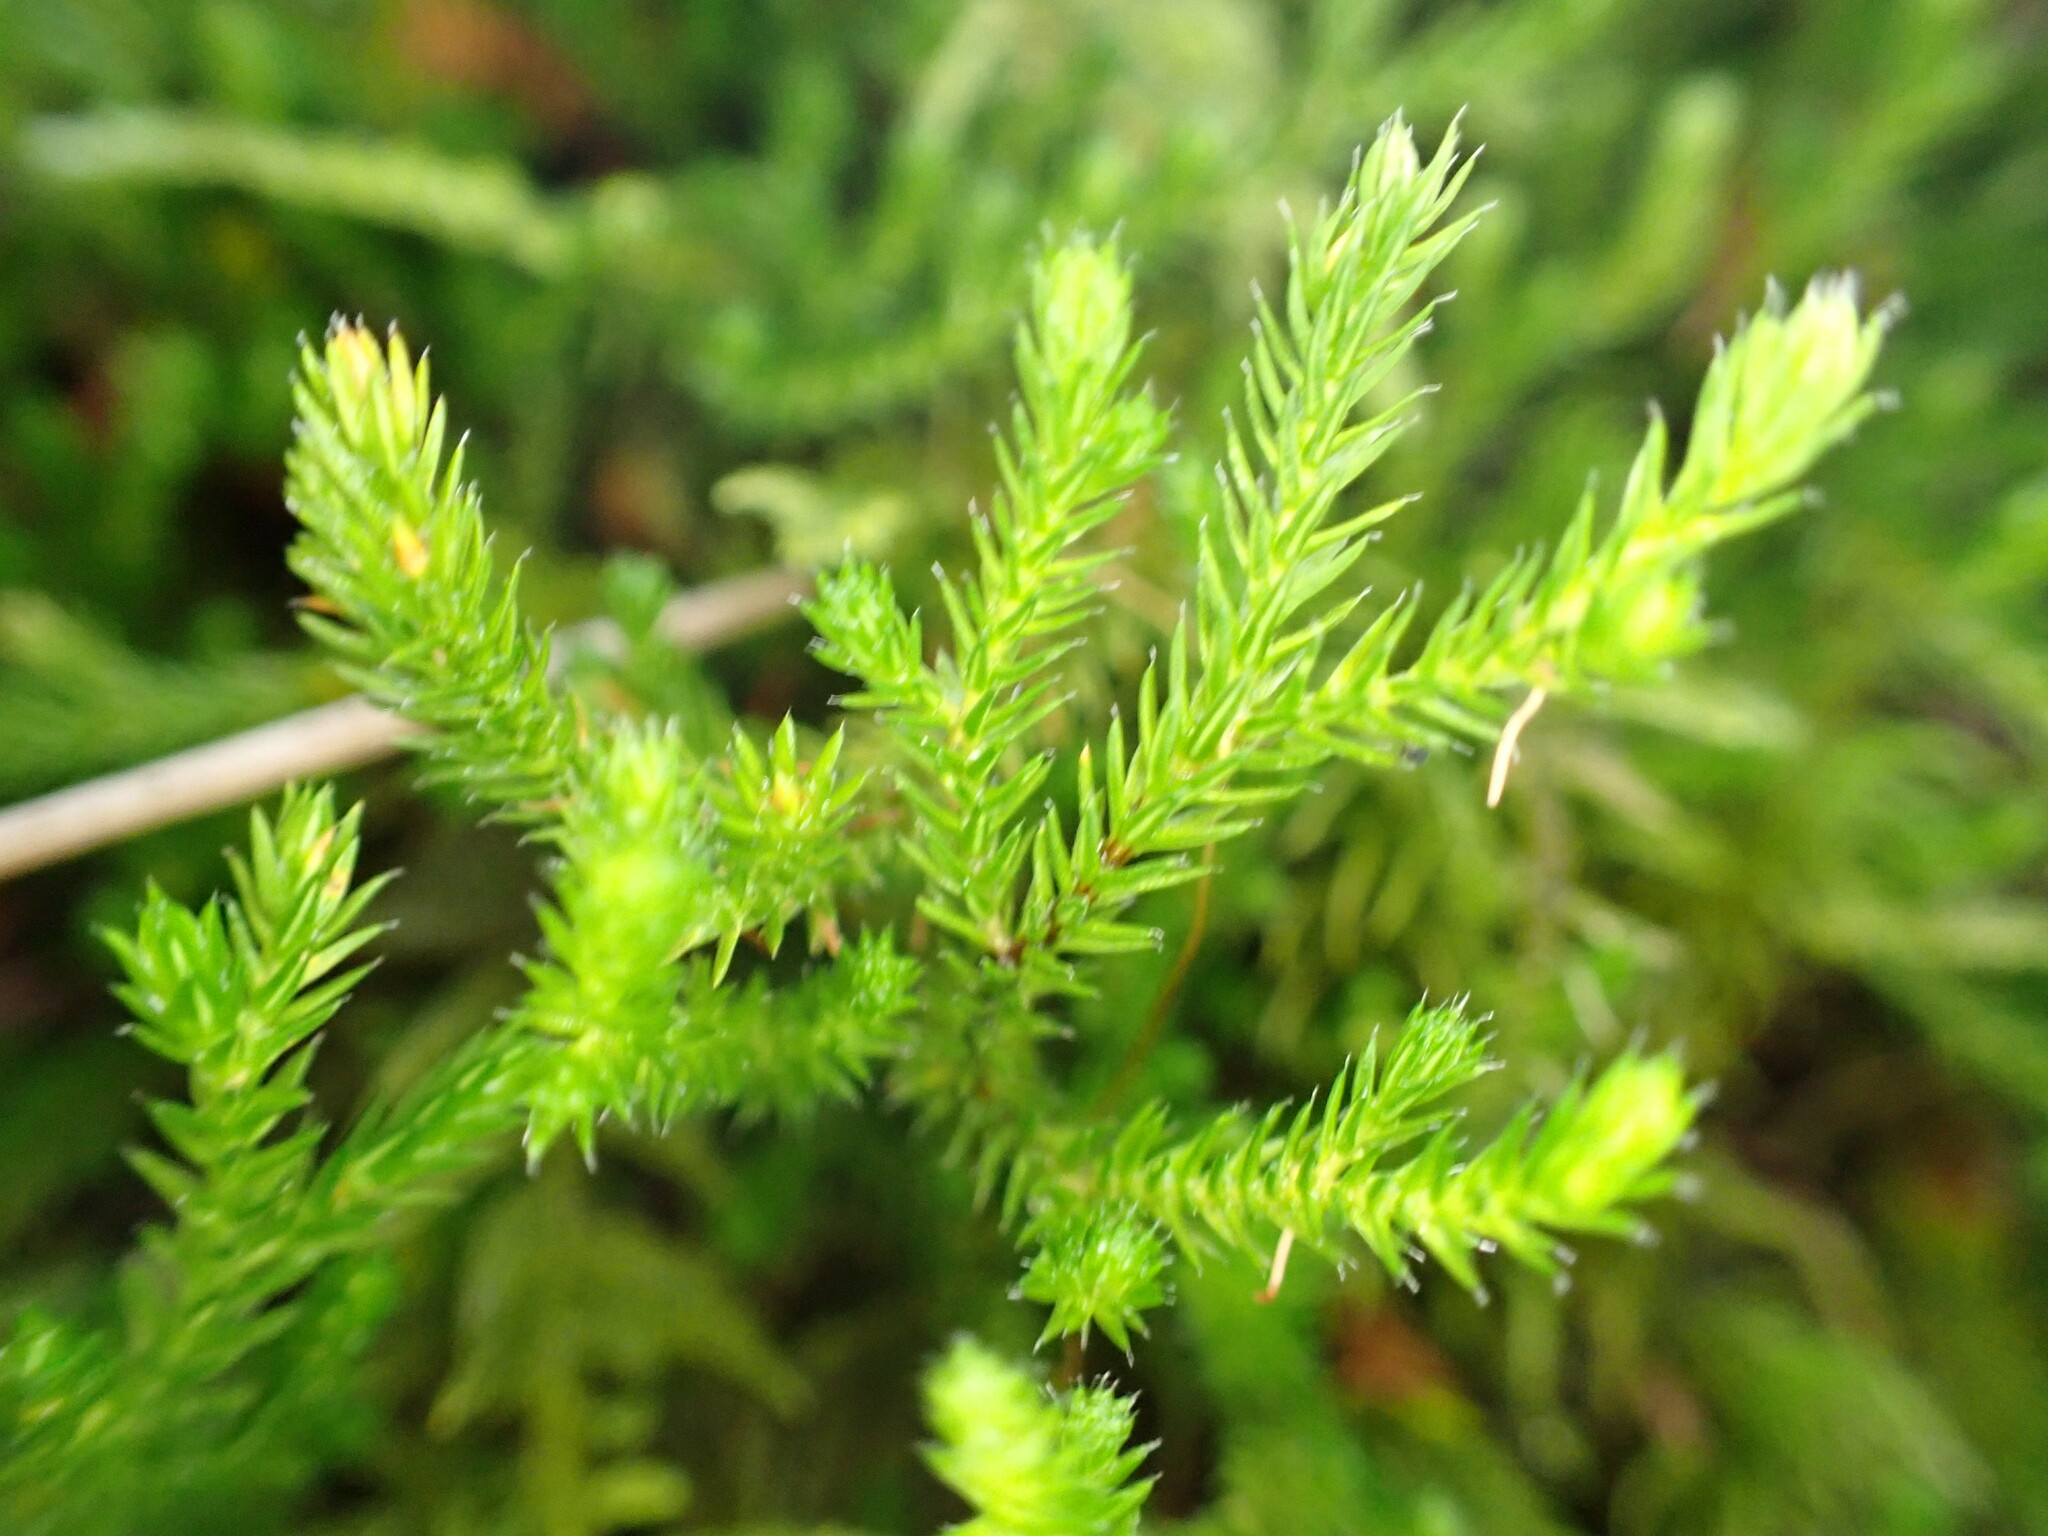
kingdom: Plantae
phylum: Tracheophyta
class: Lycopodiopsida
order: Selaginellales
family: Selaginellaceae
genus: Selaginella
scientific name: Selaginella wallacei
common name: Wallace's selaginella
